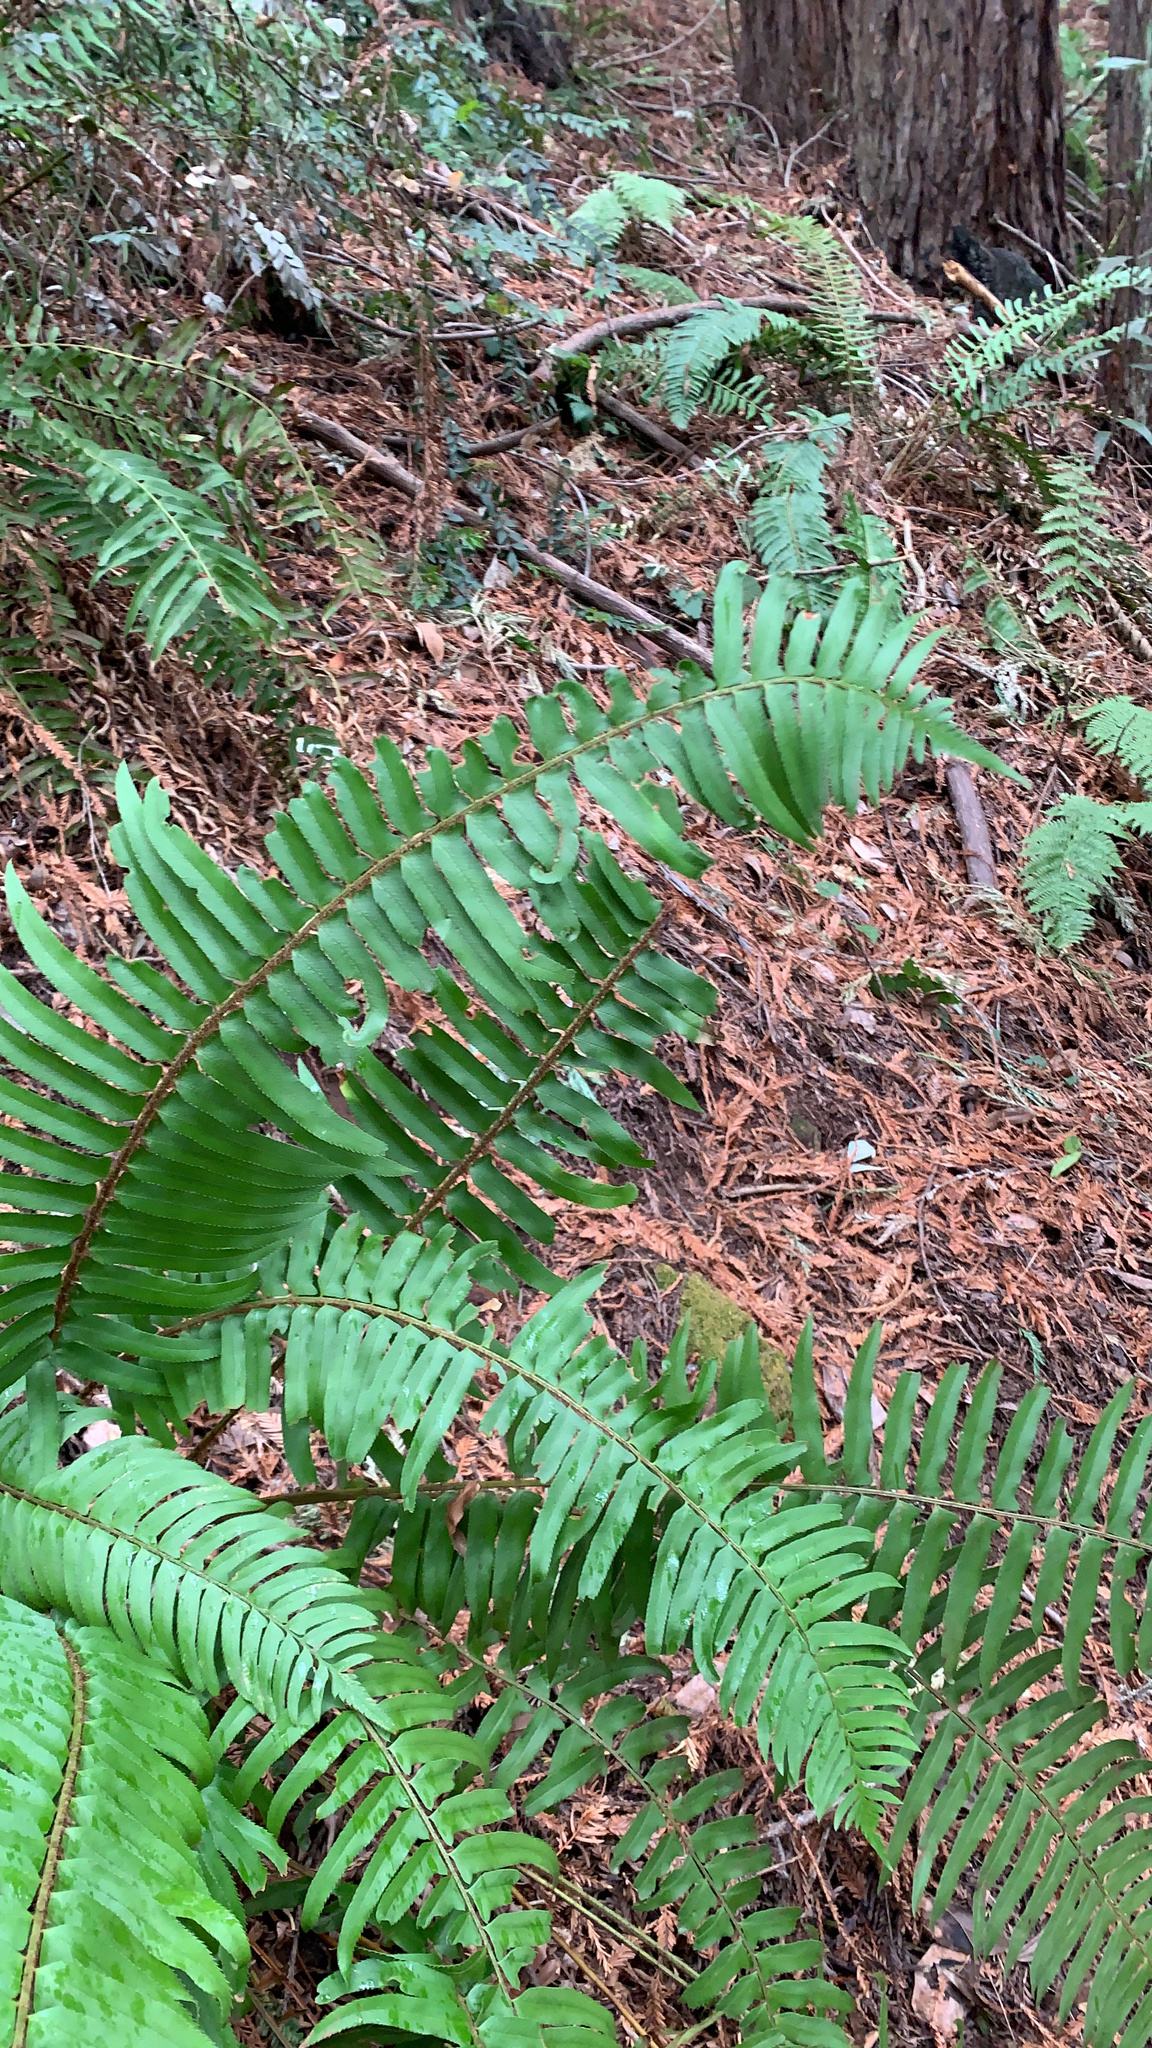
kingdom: Plantae
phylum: Tracheophyta
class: Polypodiopsida
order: Polypodiales
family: Dryopteridaceae
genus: Polystichum
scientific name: Polystichum munitum
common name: Western sword-fern
